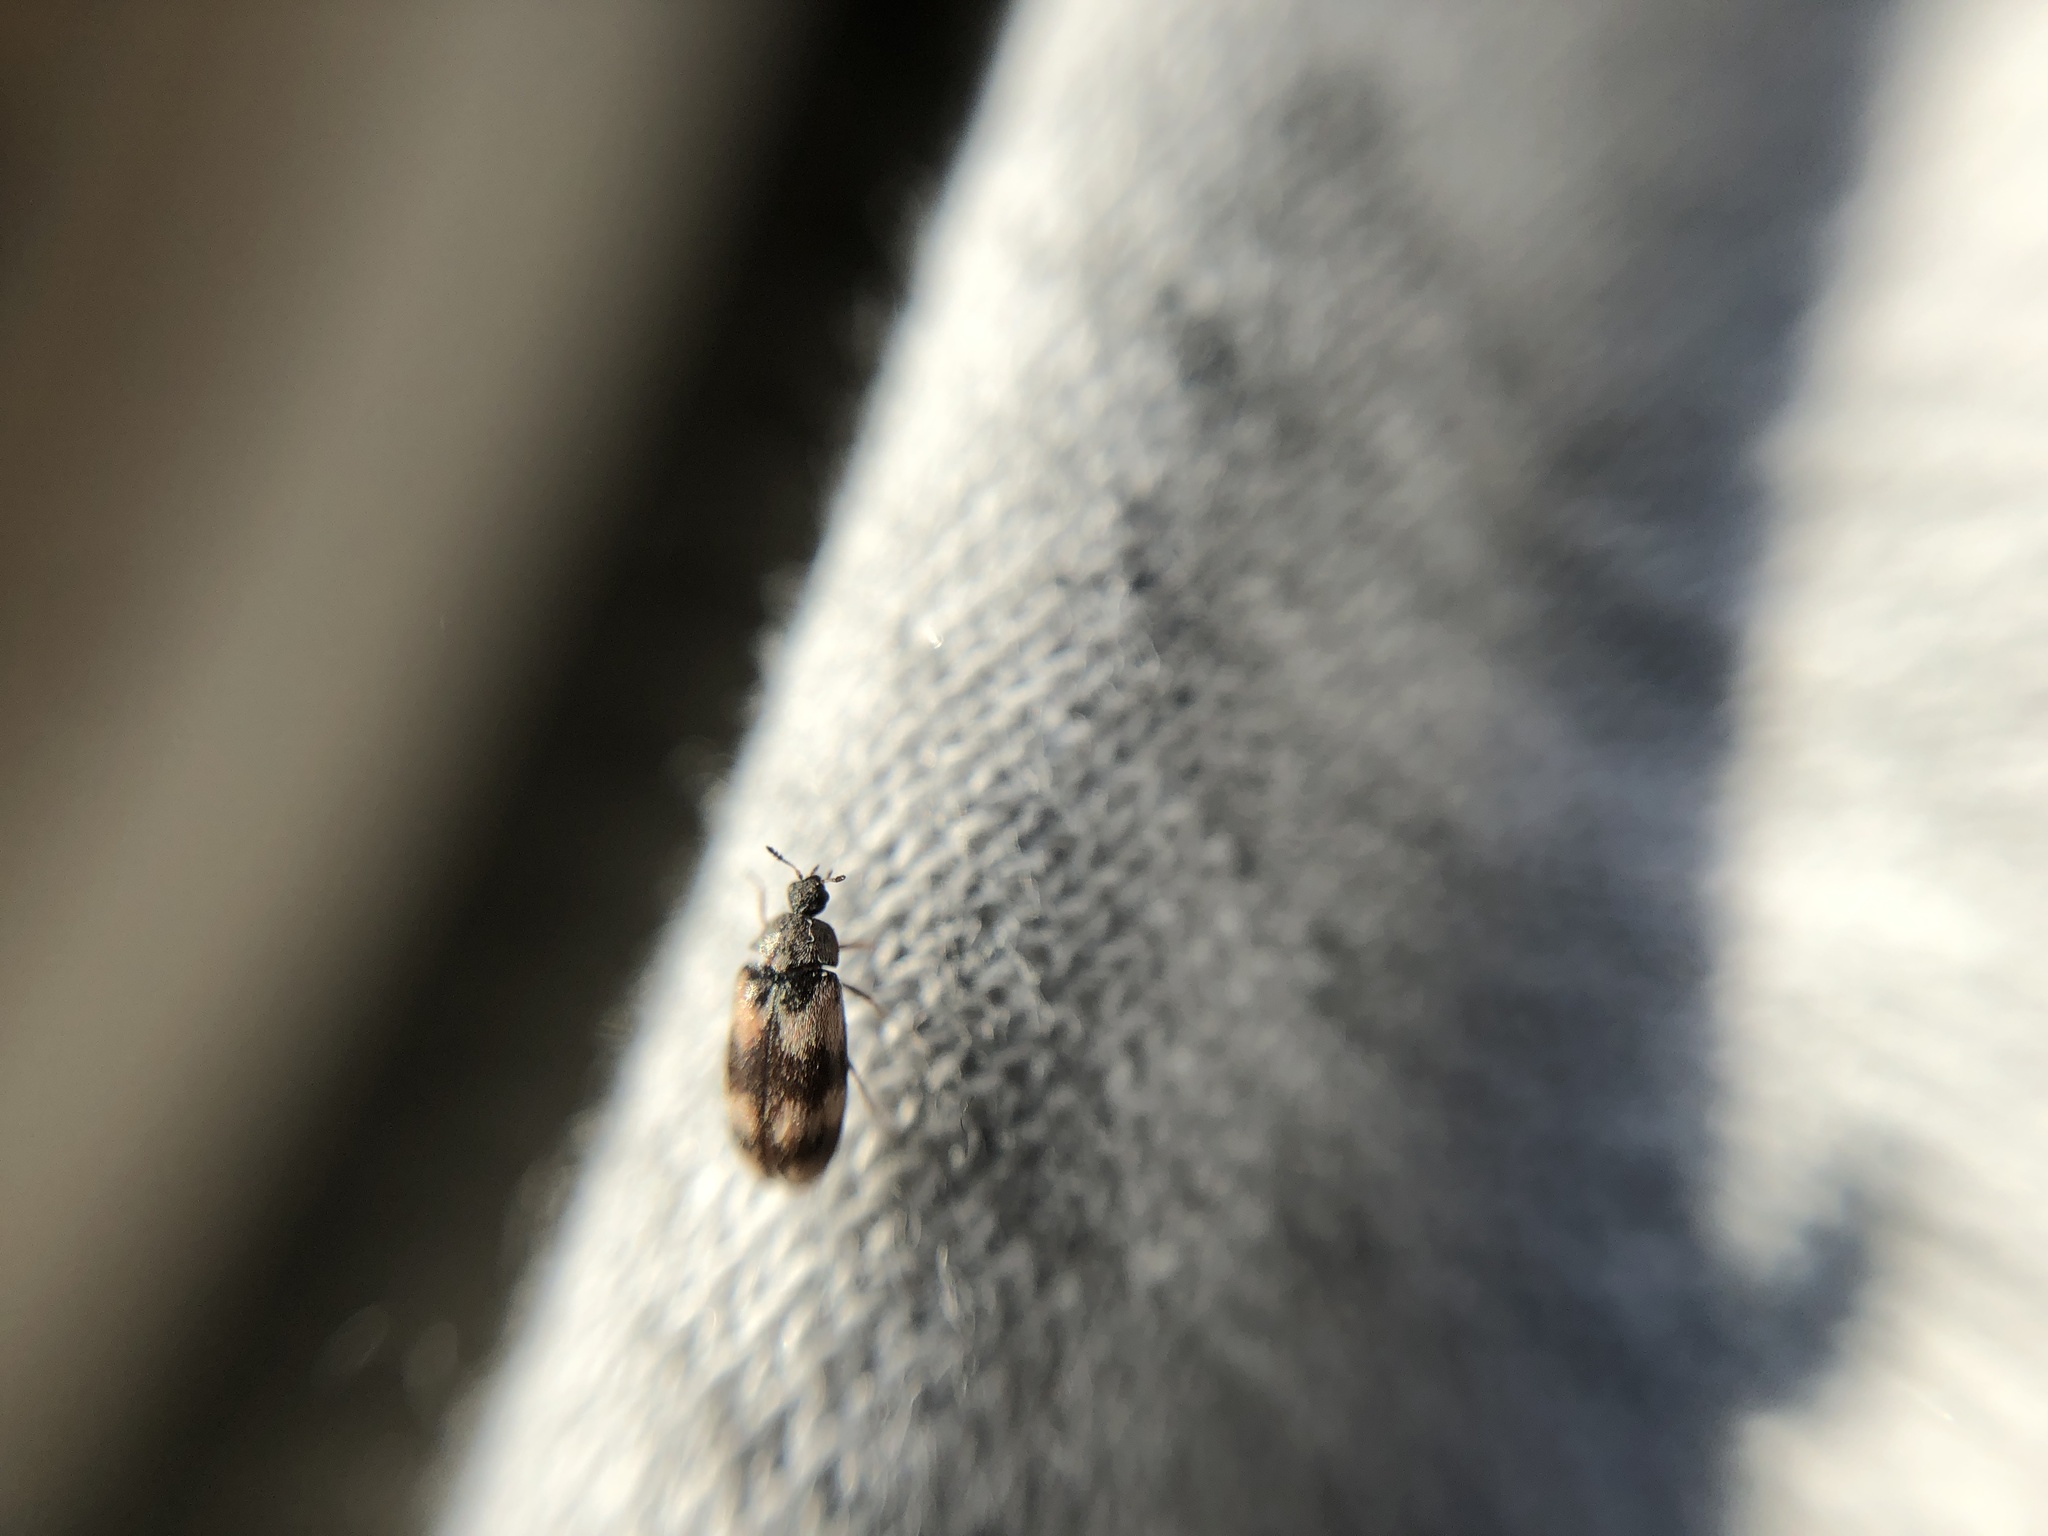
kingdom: Animalia
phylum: Arthropoda
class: Insecta
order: Coleoptera
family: Dermestidae
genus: Trogoderma
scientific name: Trogoderma angustum
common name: Skin beetle
